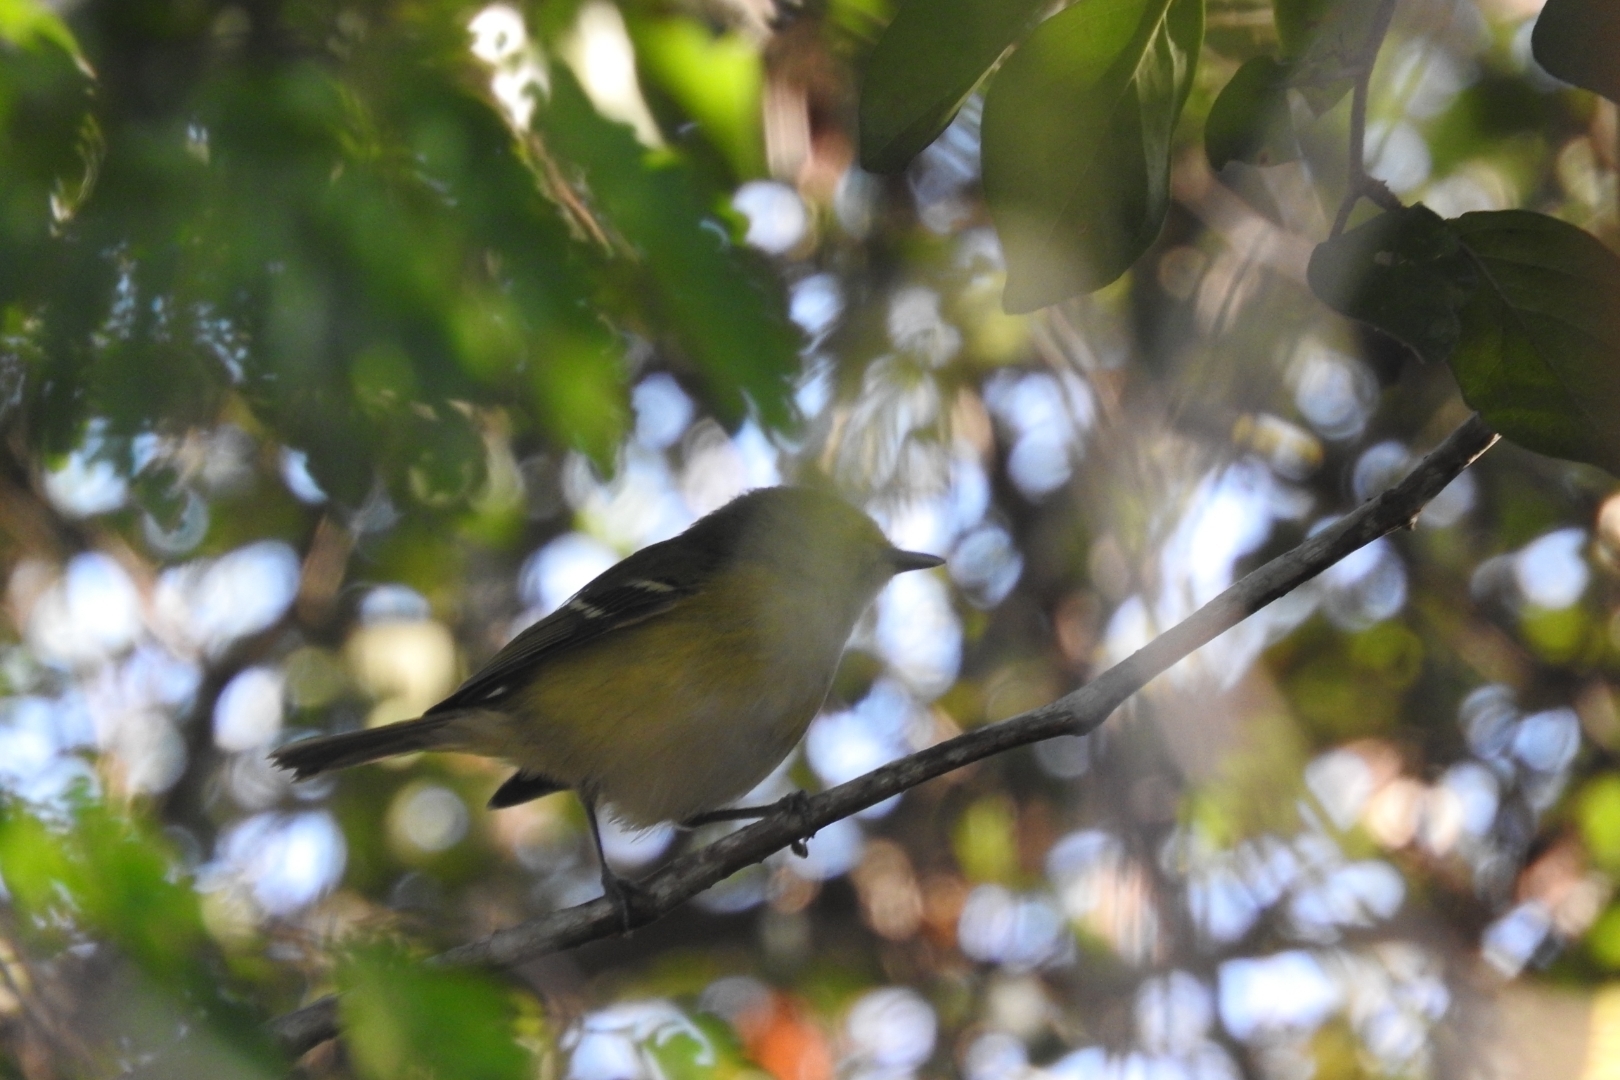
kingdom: Animalia
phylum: Chordata
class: Aves
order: Passeriformes
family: Vireonidae
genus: Vireo
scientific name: Vireo griseus
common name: White-eyed vireo
